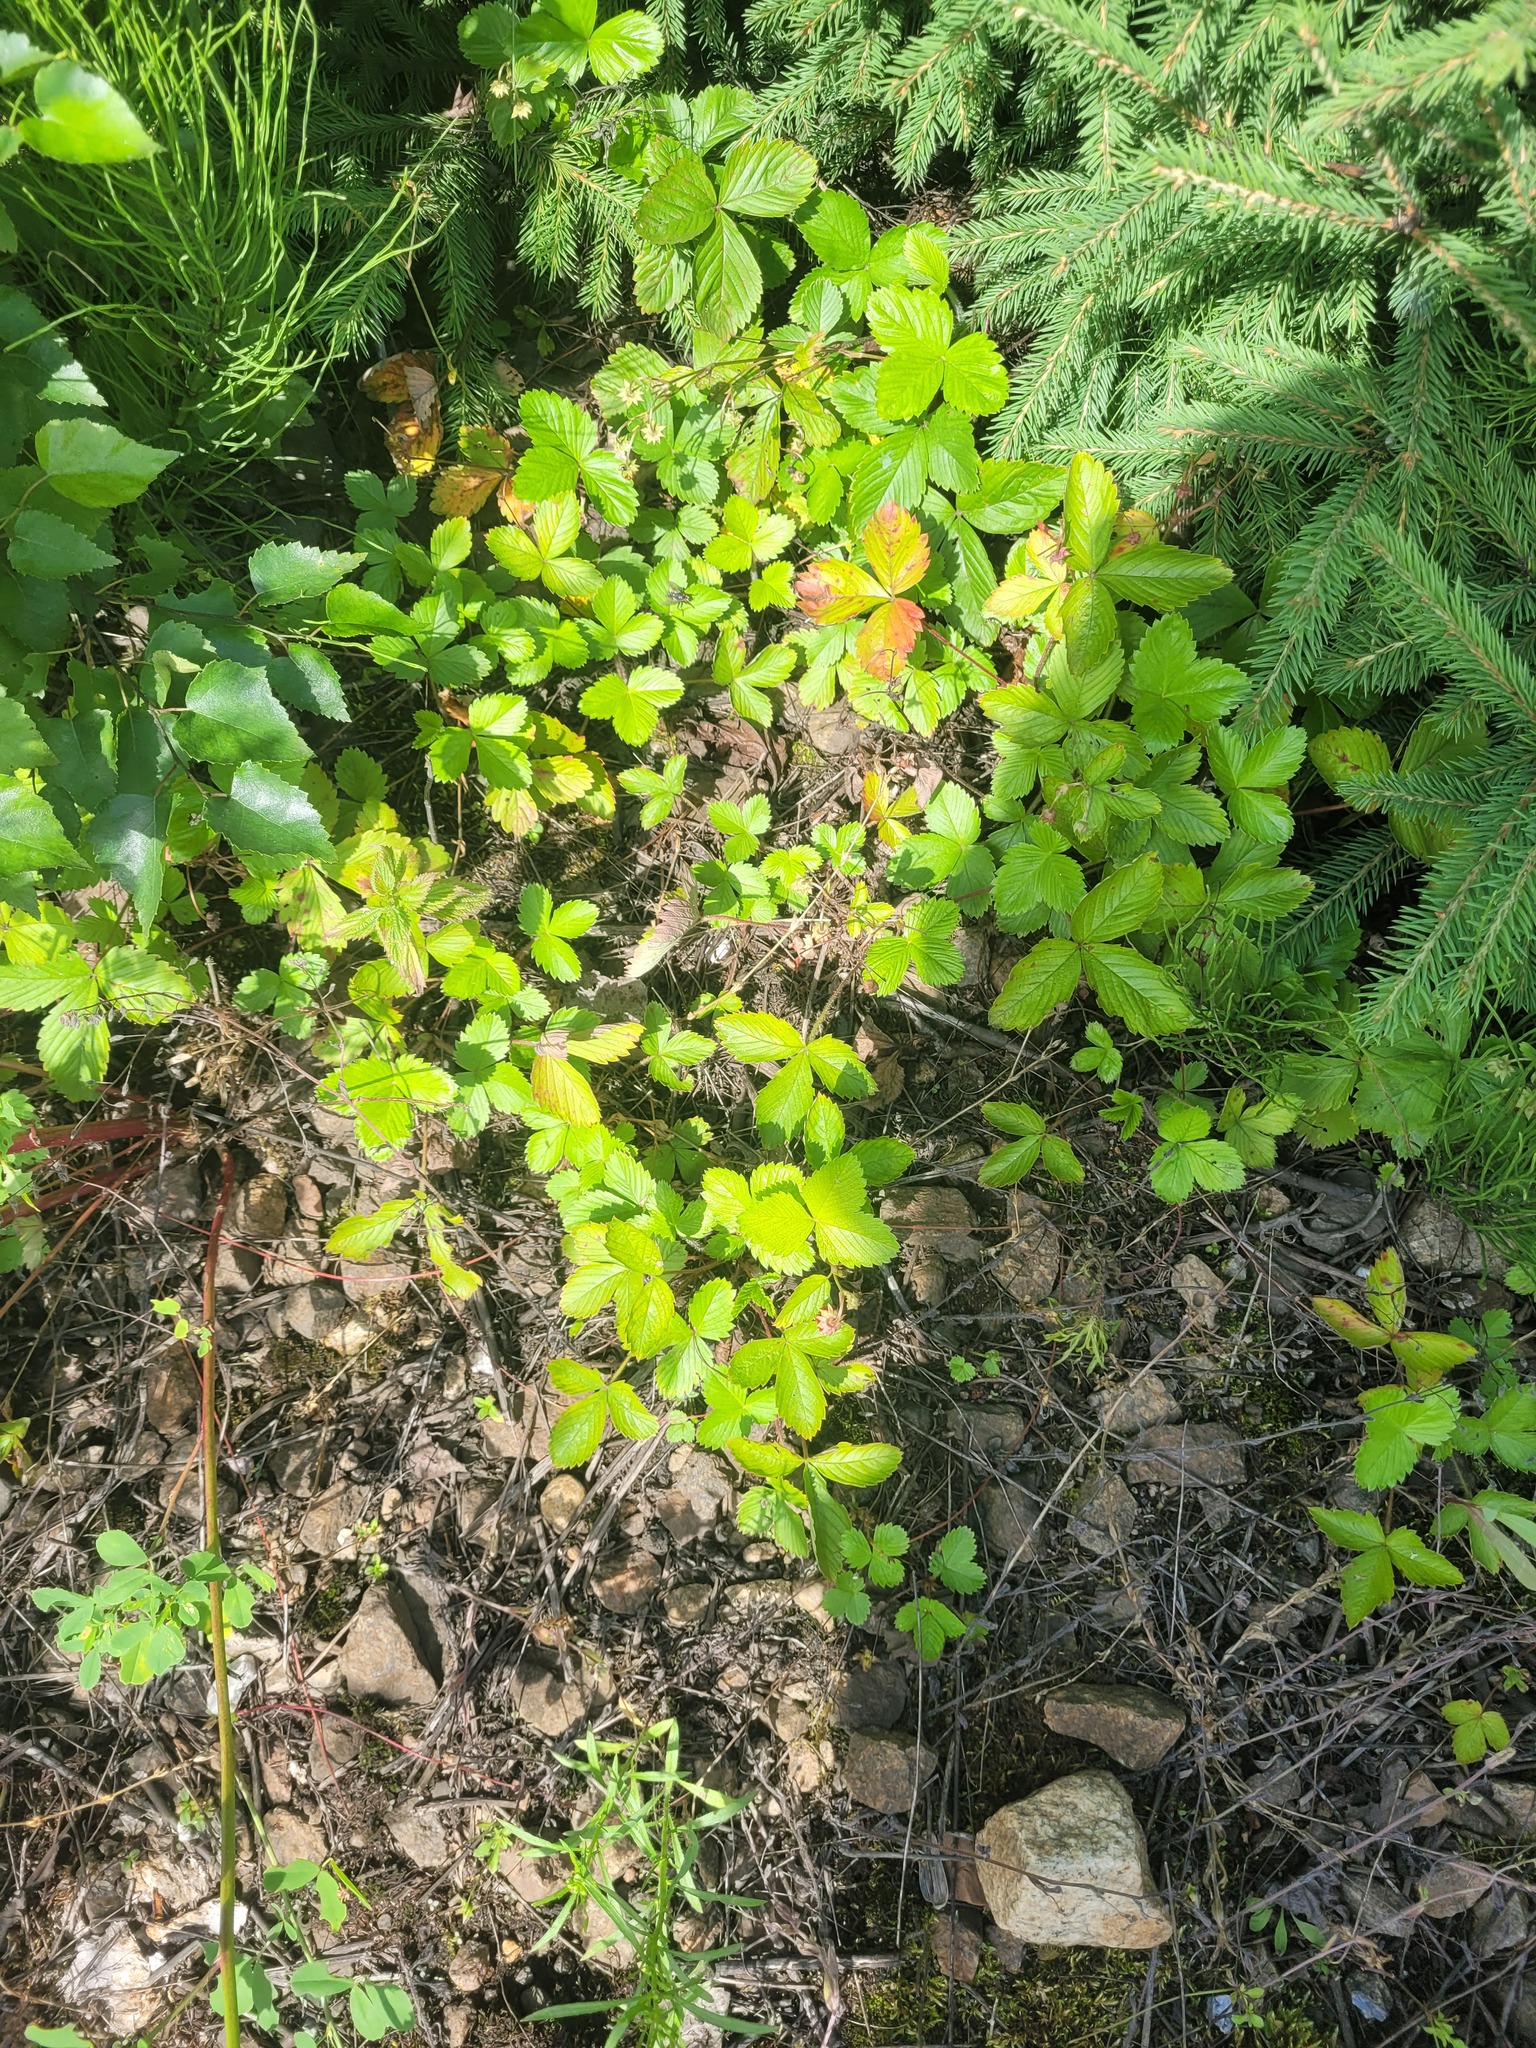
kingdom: Plantae
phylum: Tracheophyta
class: Magnoliopsida
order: Rosales
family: Rosaceae
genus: Fragaria
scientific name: Fragaria vesca
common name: Wild strawberry
